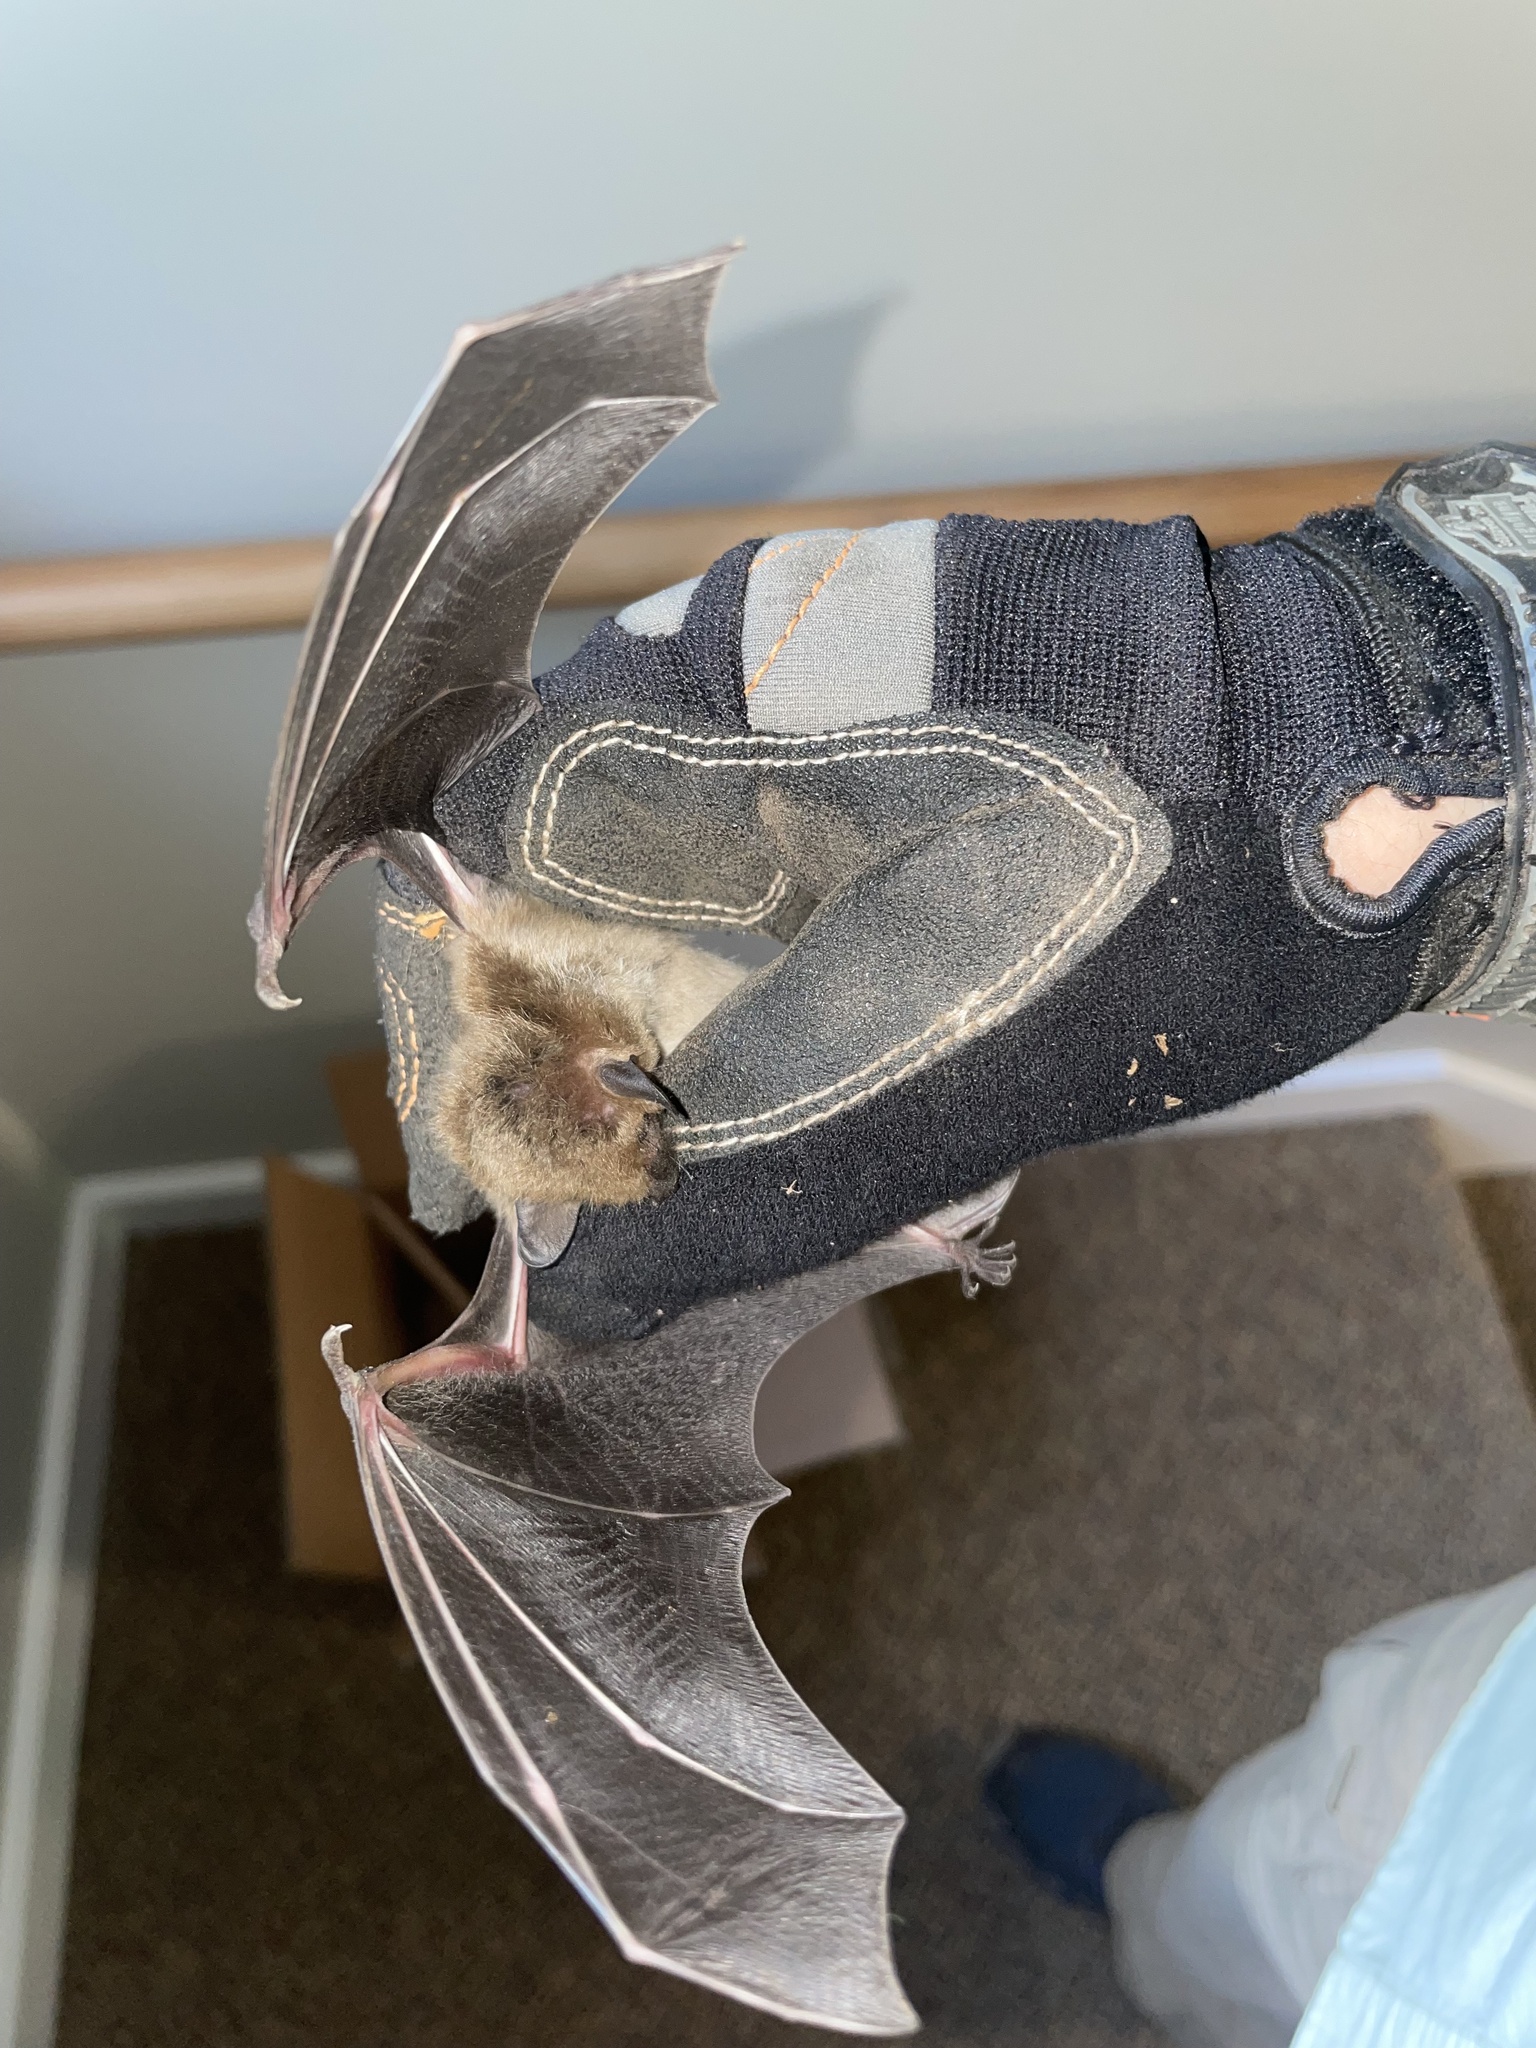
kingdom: Animalia
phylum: Chordata
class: Mammalia
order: Chiroptera
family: Vespertilionidae
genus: Eptesicus
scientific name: Eptesicus fuscus
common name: Big brown bat
